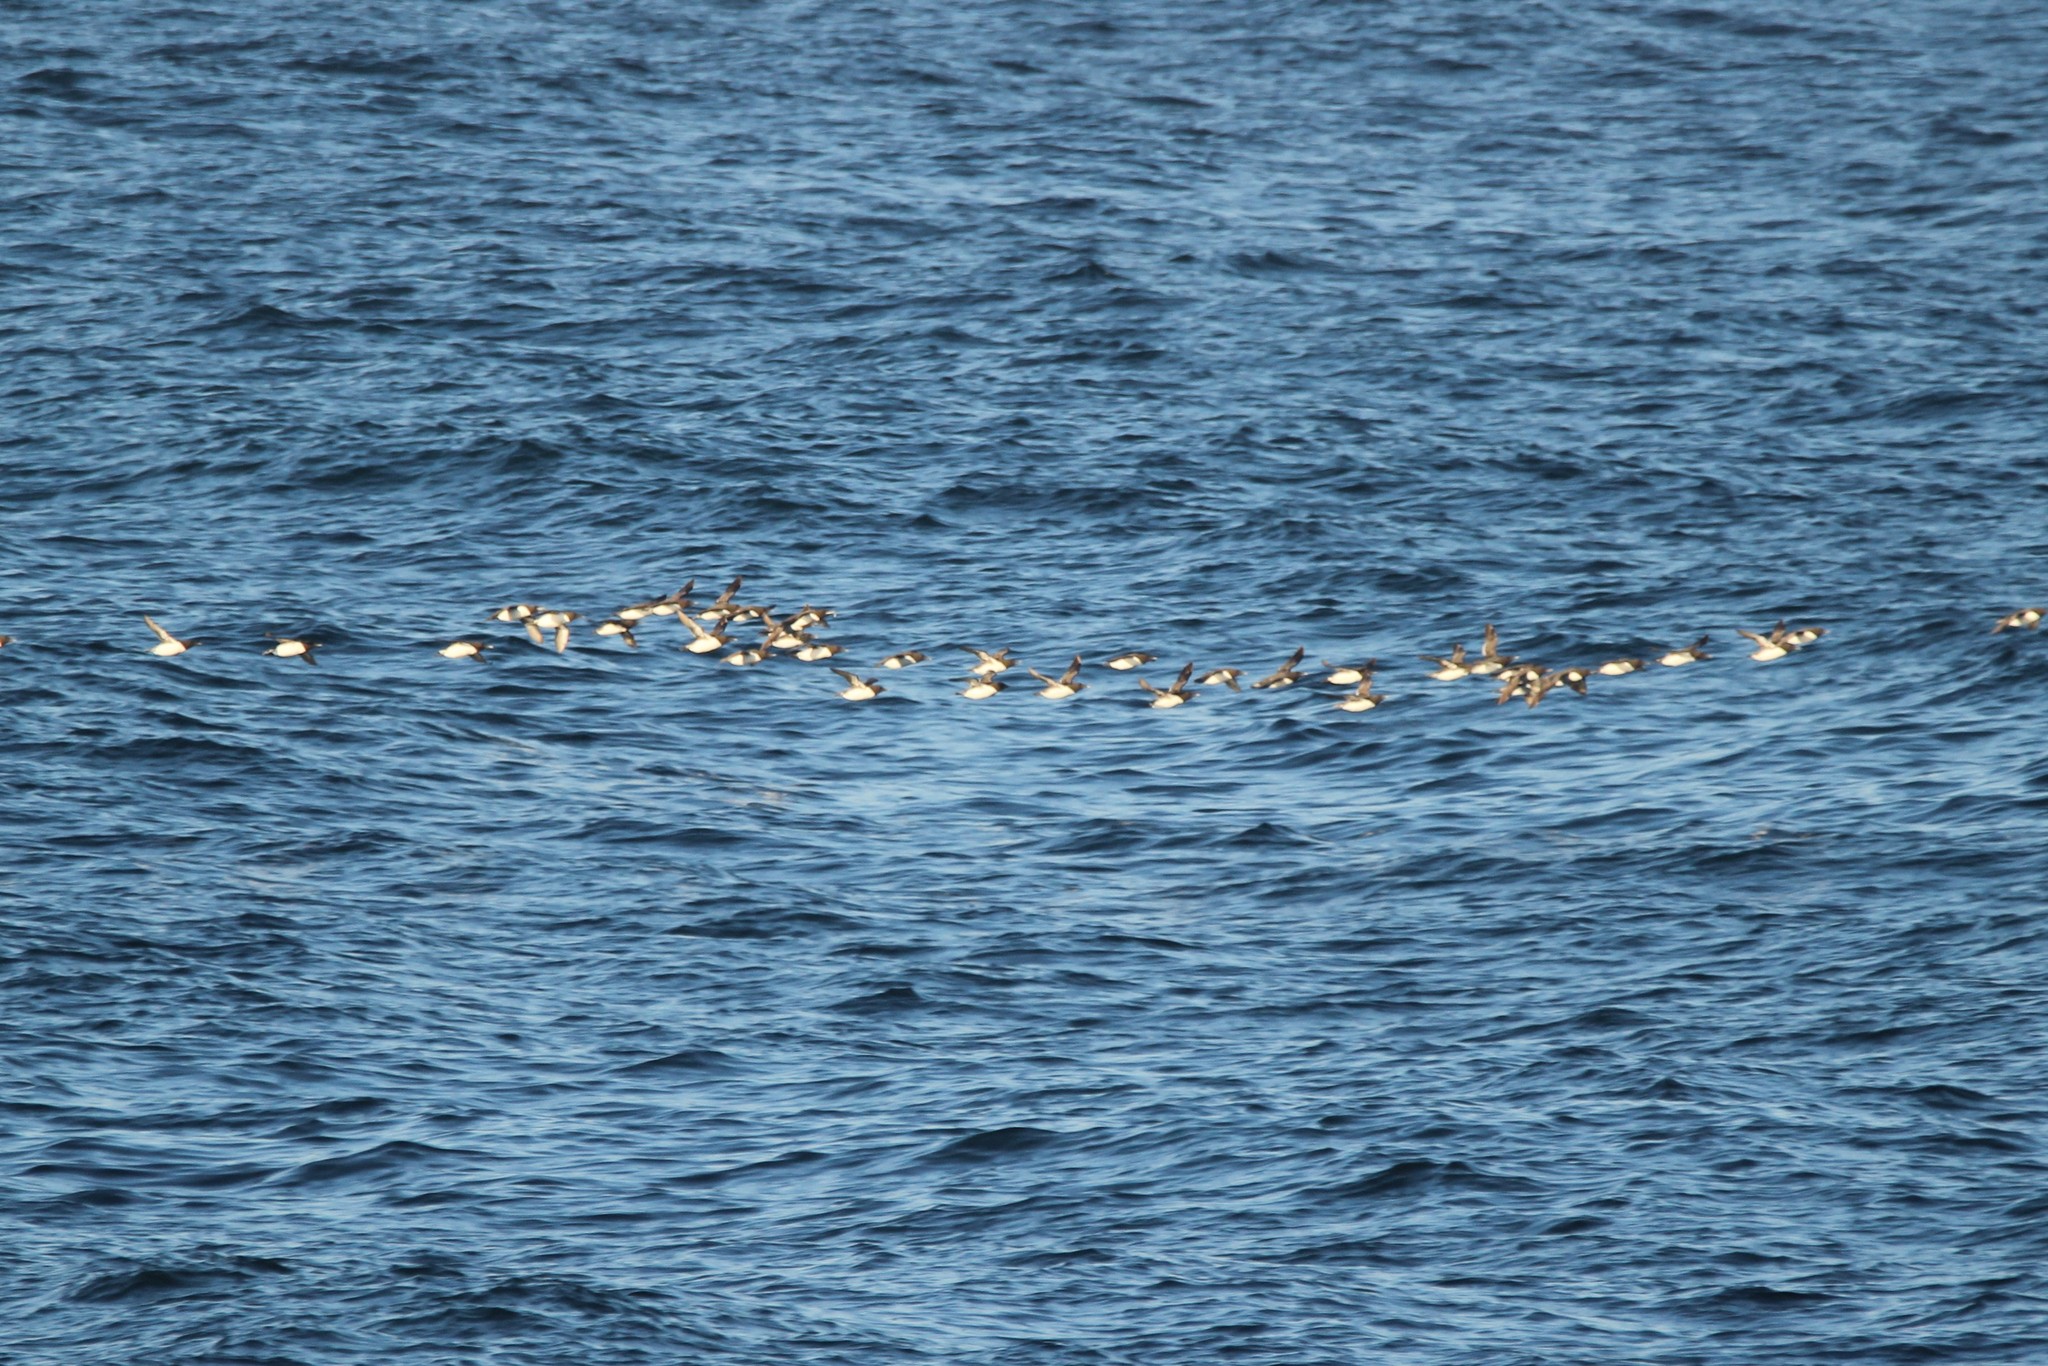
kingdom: Animalia
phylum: Chordata
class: Aves
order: Charadriiformes
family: Alcidae
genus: Uria
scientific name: Uria aalge
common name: Common murre
